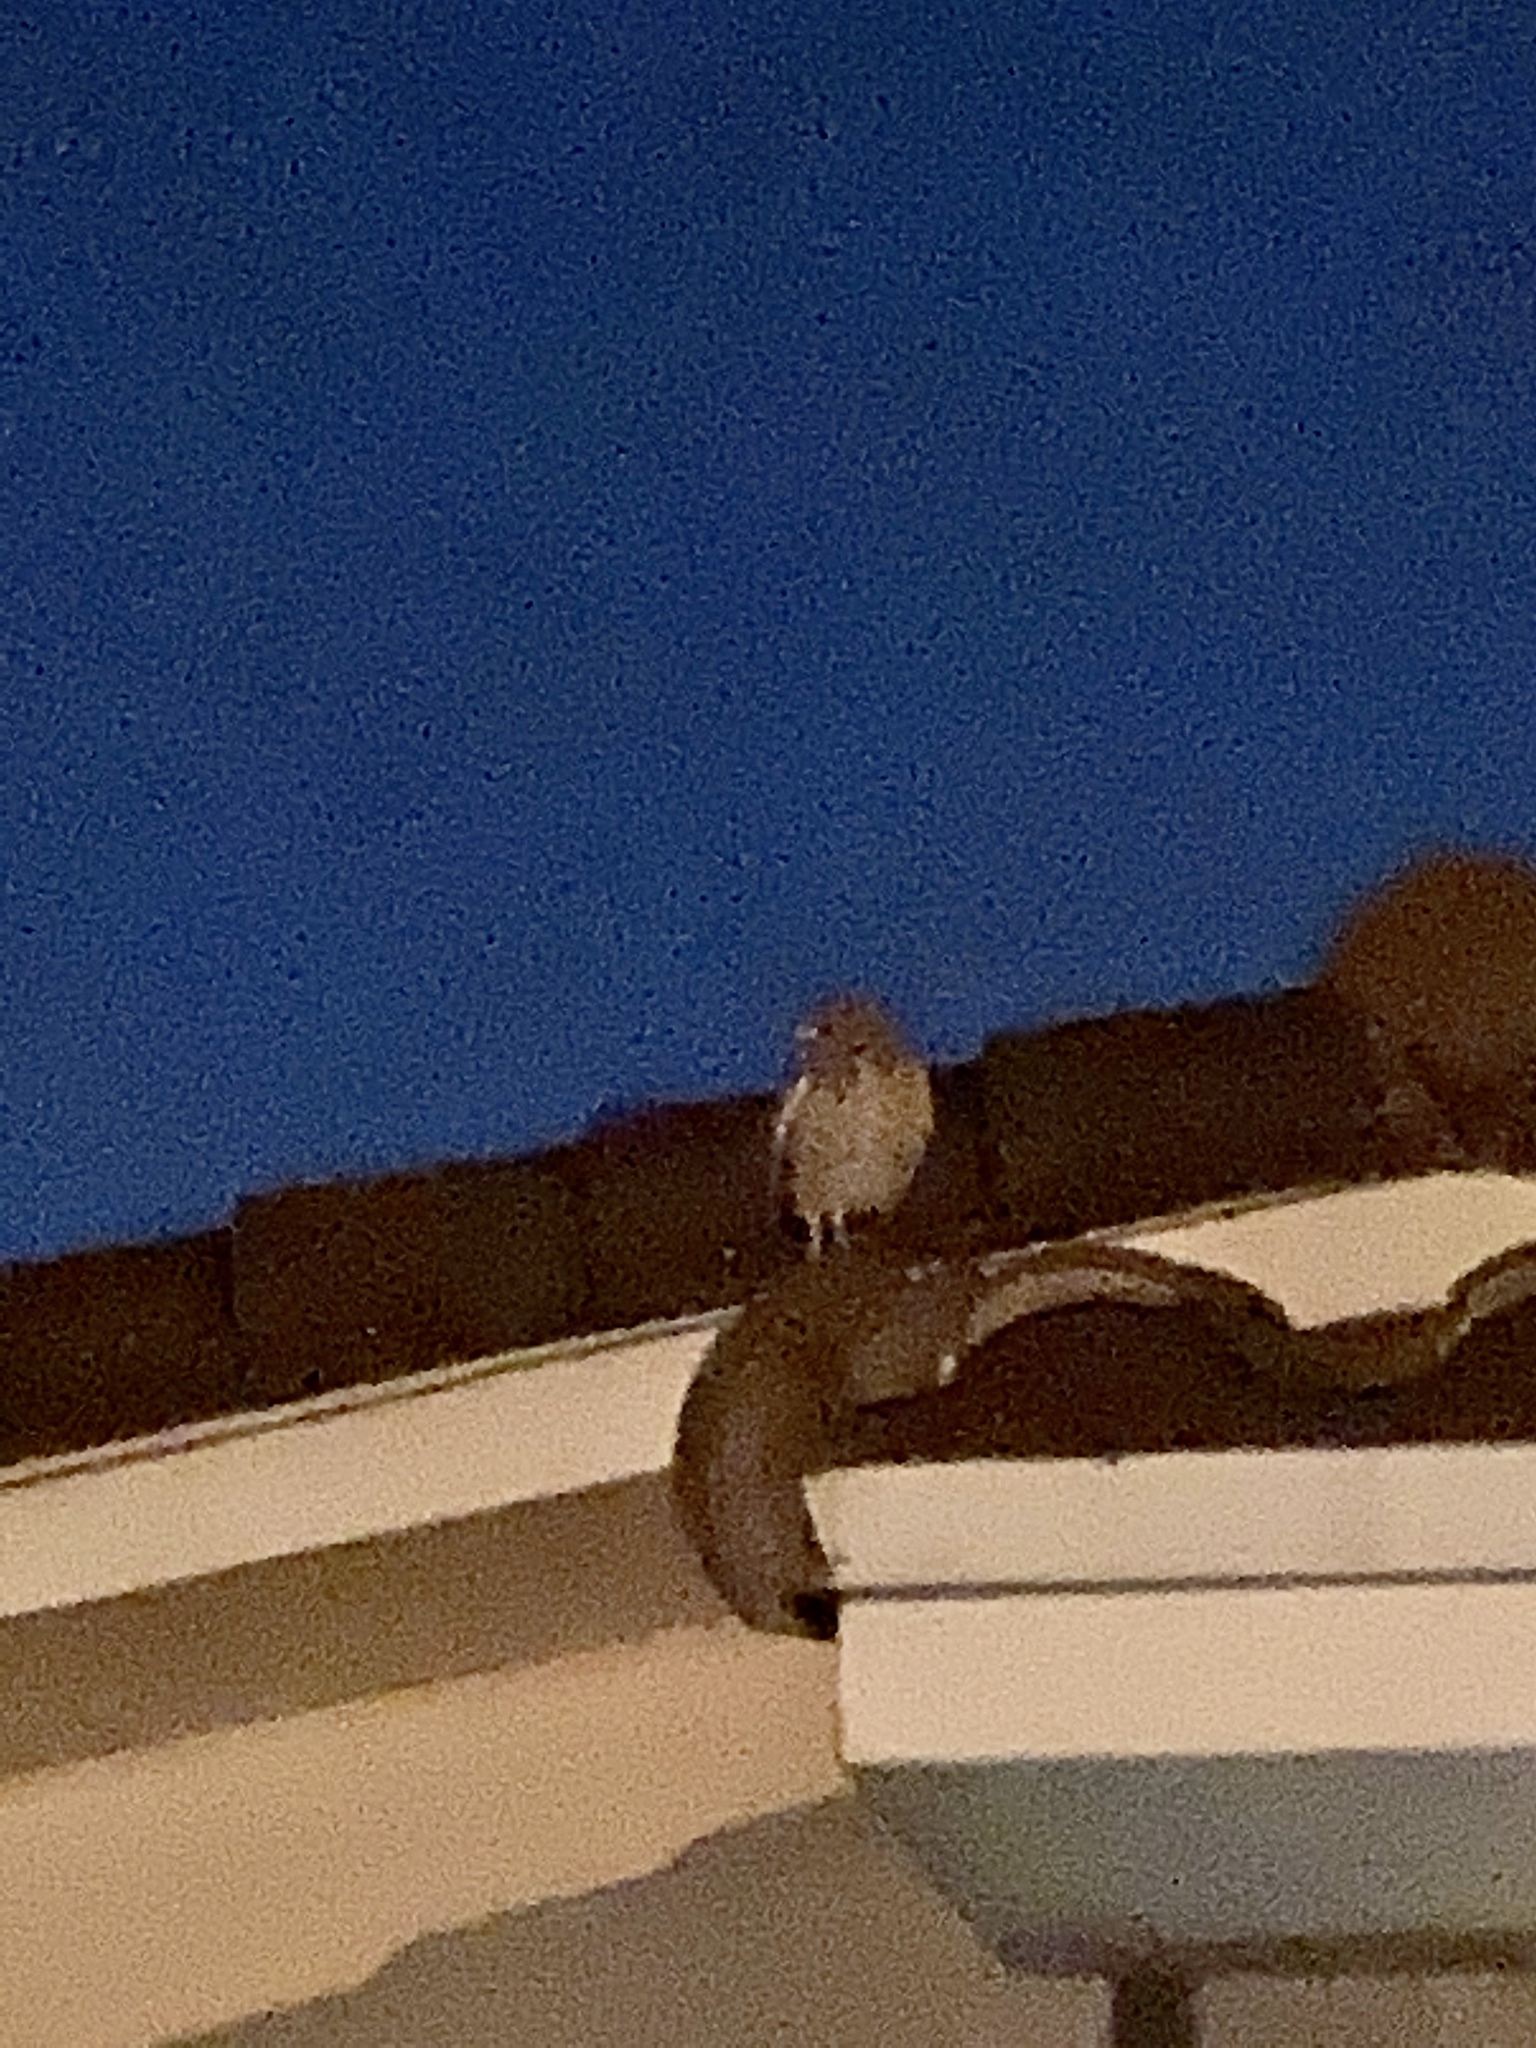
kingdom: Animalia
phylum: Chordata
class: Aves
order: Strigiformes
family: Strigidae
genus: Athene
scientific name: Athene cunicularia
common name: Burrowing owl
